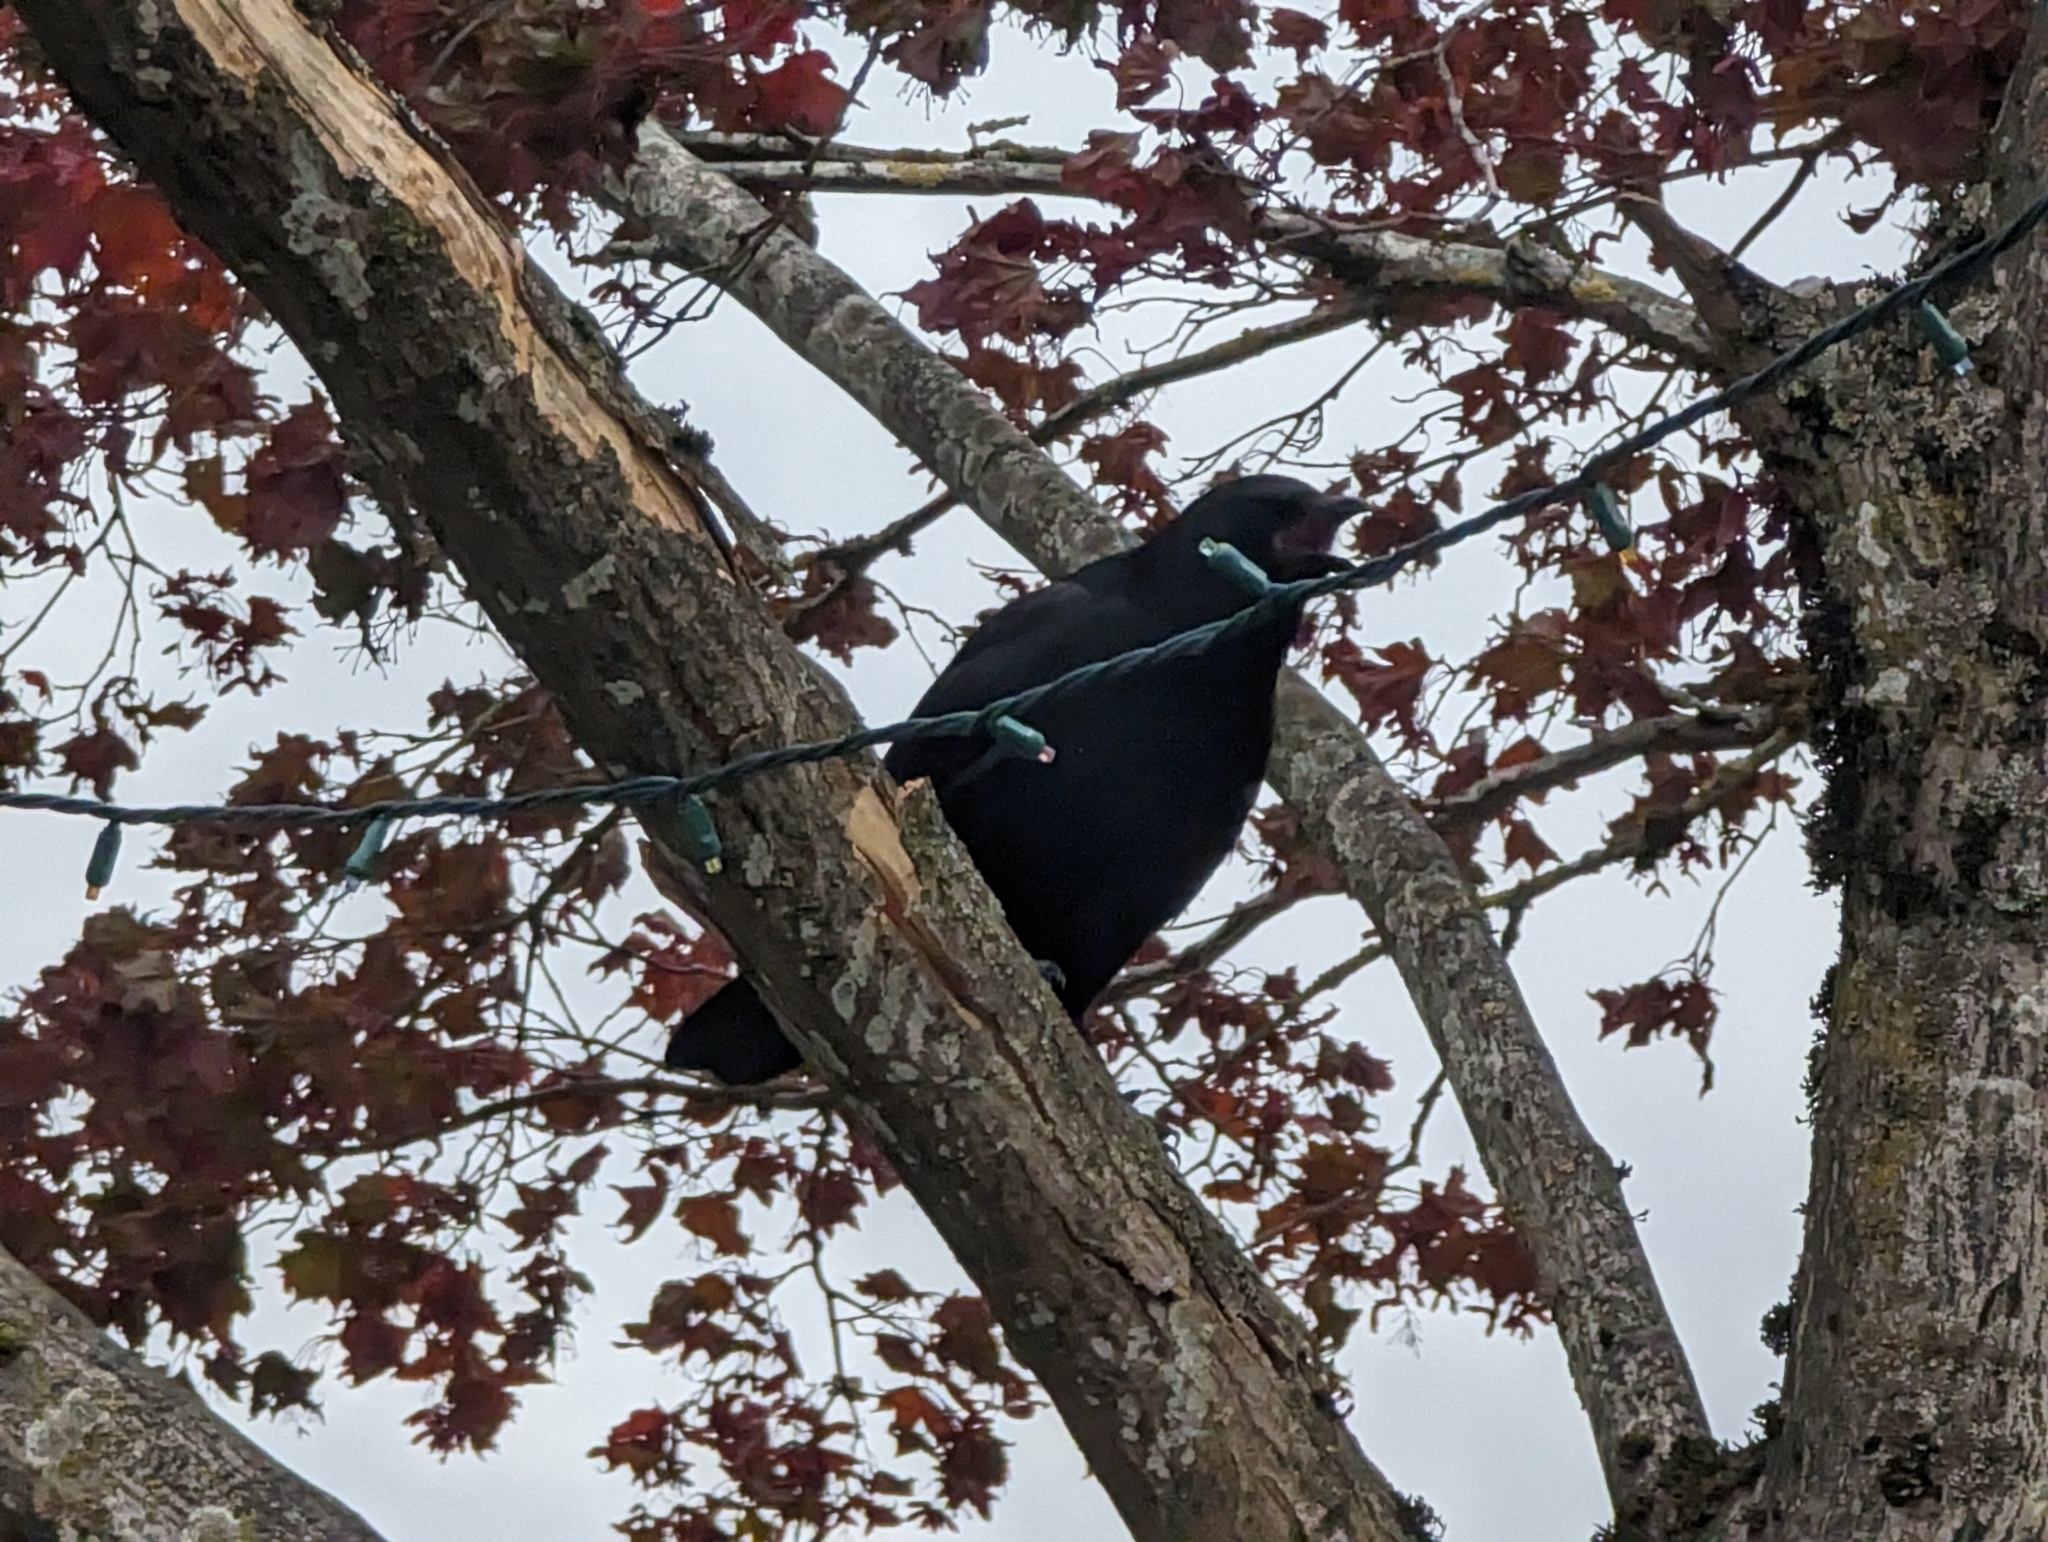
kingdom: Animalia
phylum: Chordata
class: Aves
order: Passeriformes
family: Corvidae
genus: Corvus
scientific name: Corvus brachyrhynchos
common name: American crow
